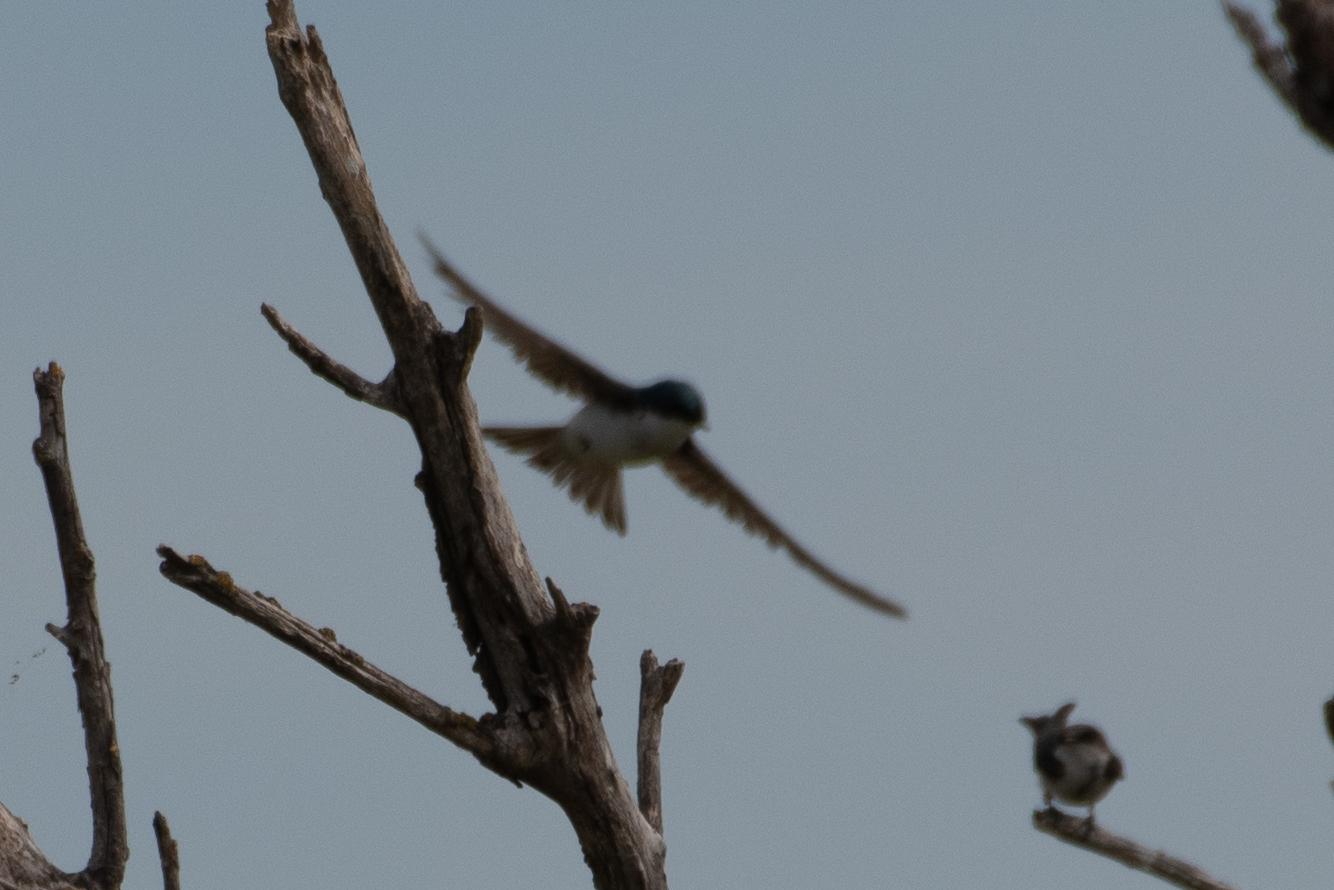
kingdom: Animalia
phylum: Chordata
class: Aves
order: Passeriformes
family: Hirundinidae
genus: Tachycineta
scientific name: Tachycineta bicolor
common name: Tree swallow
